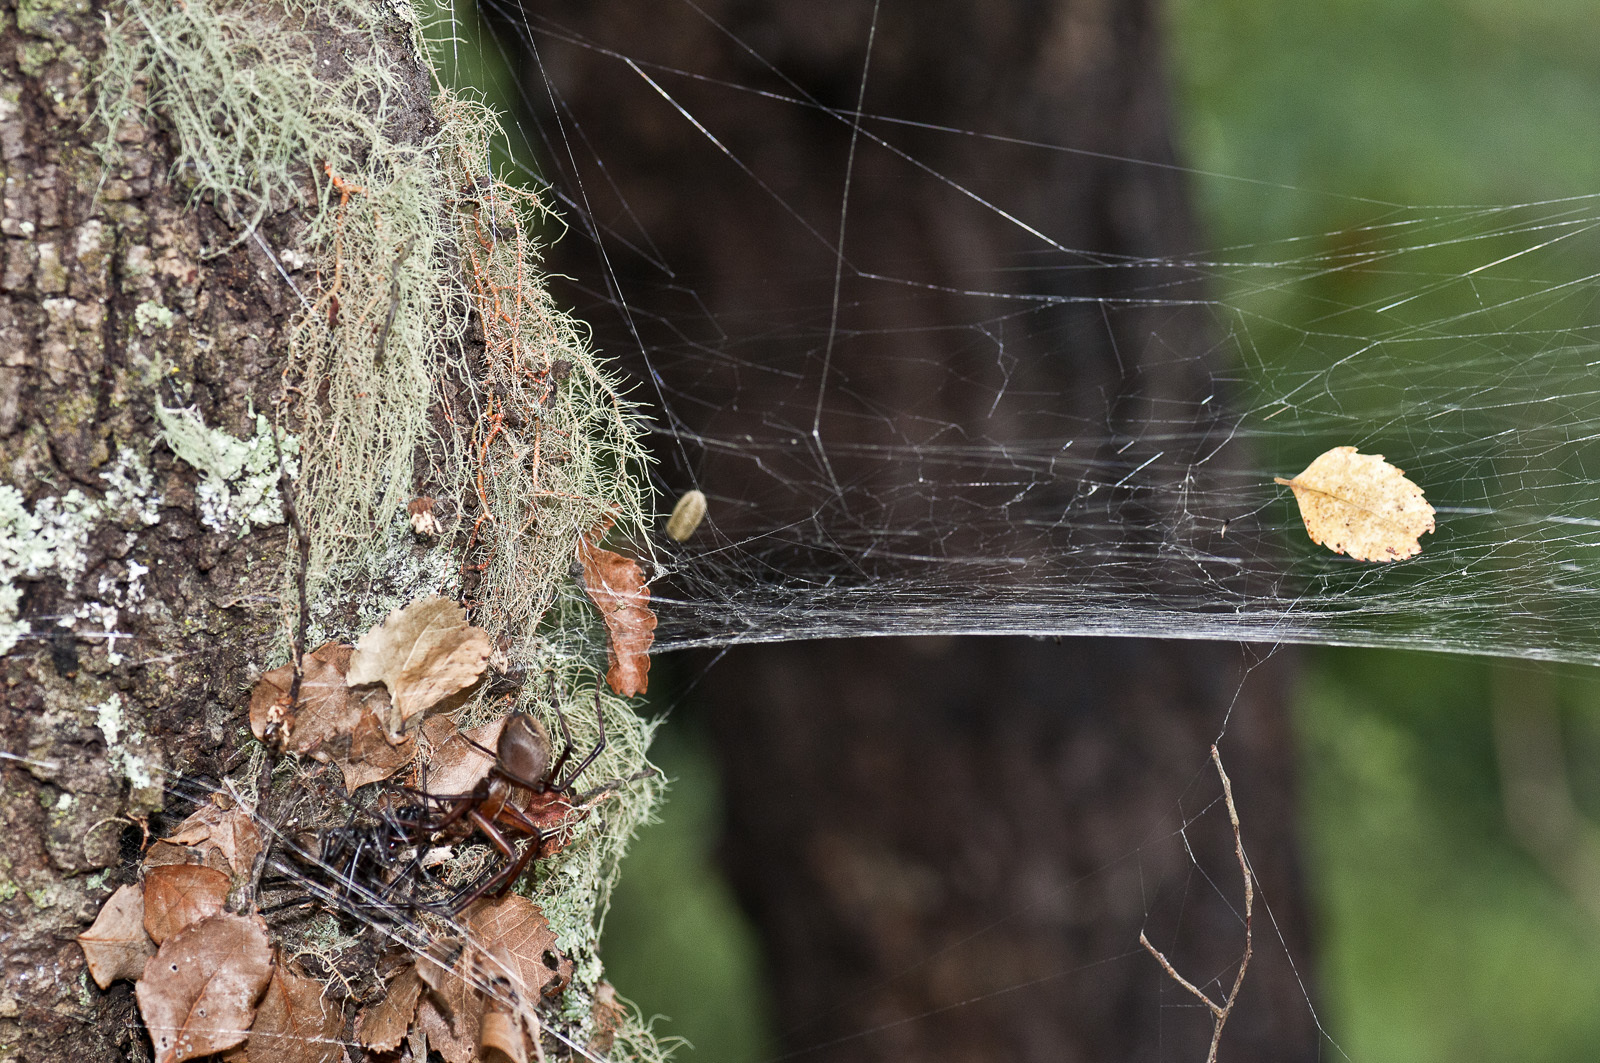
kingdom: Animalia
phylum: Arthropoda
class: Arachnida
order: Araneae
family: Desidae
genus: Cambridgea
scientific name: Cambridgea foliata
